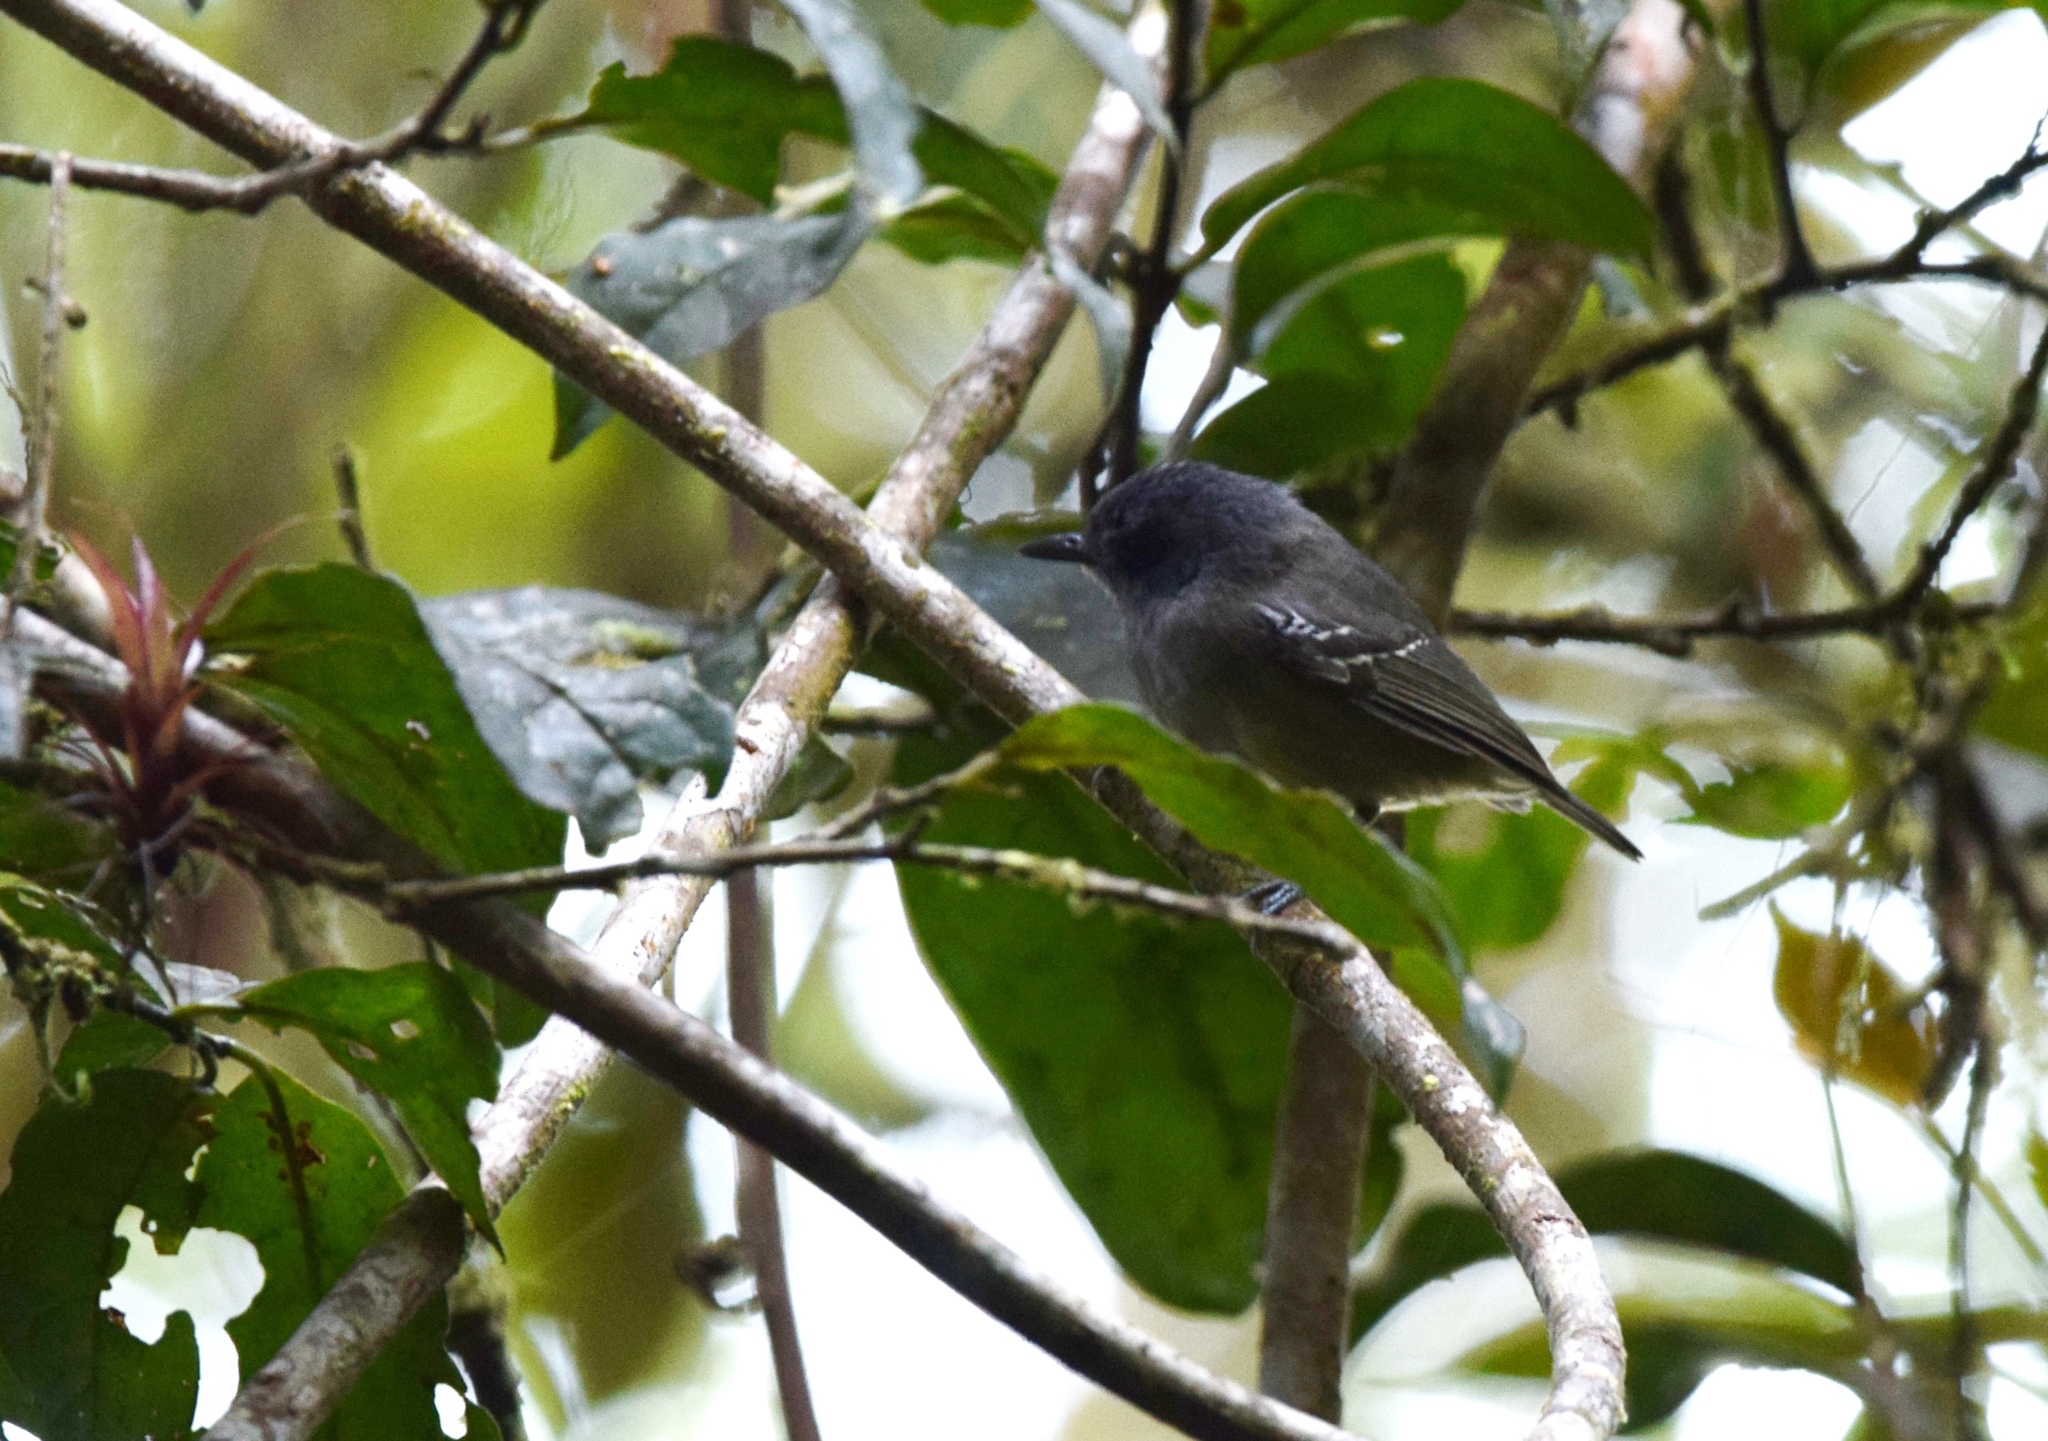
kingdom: Animalia
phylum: Chordata
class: Aves
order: Passeriformes
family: Thamnophilidae
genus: Dysithamnus
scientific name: Dysithamnus mentalis
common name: Plain antvireo
